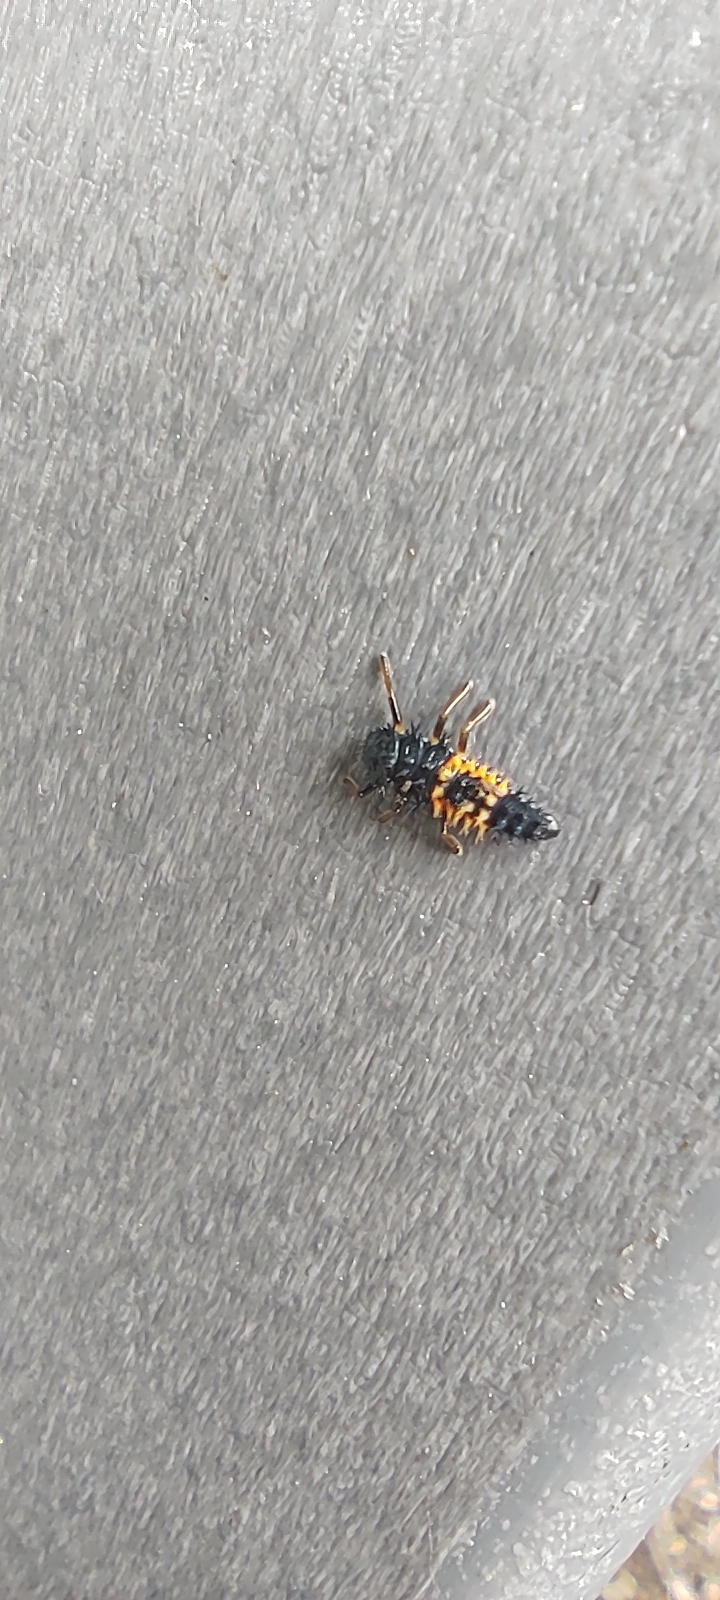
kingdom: Animalia
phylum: Arthropoda
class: Insecta
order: Coleoptera
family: Coccinellidae
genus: Harmonia
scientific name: Harmonia axyridis
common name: Harlequin ladybird
